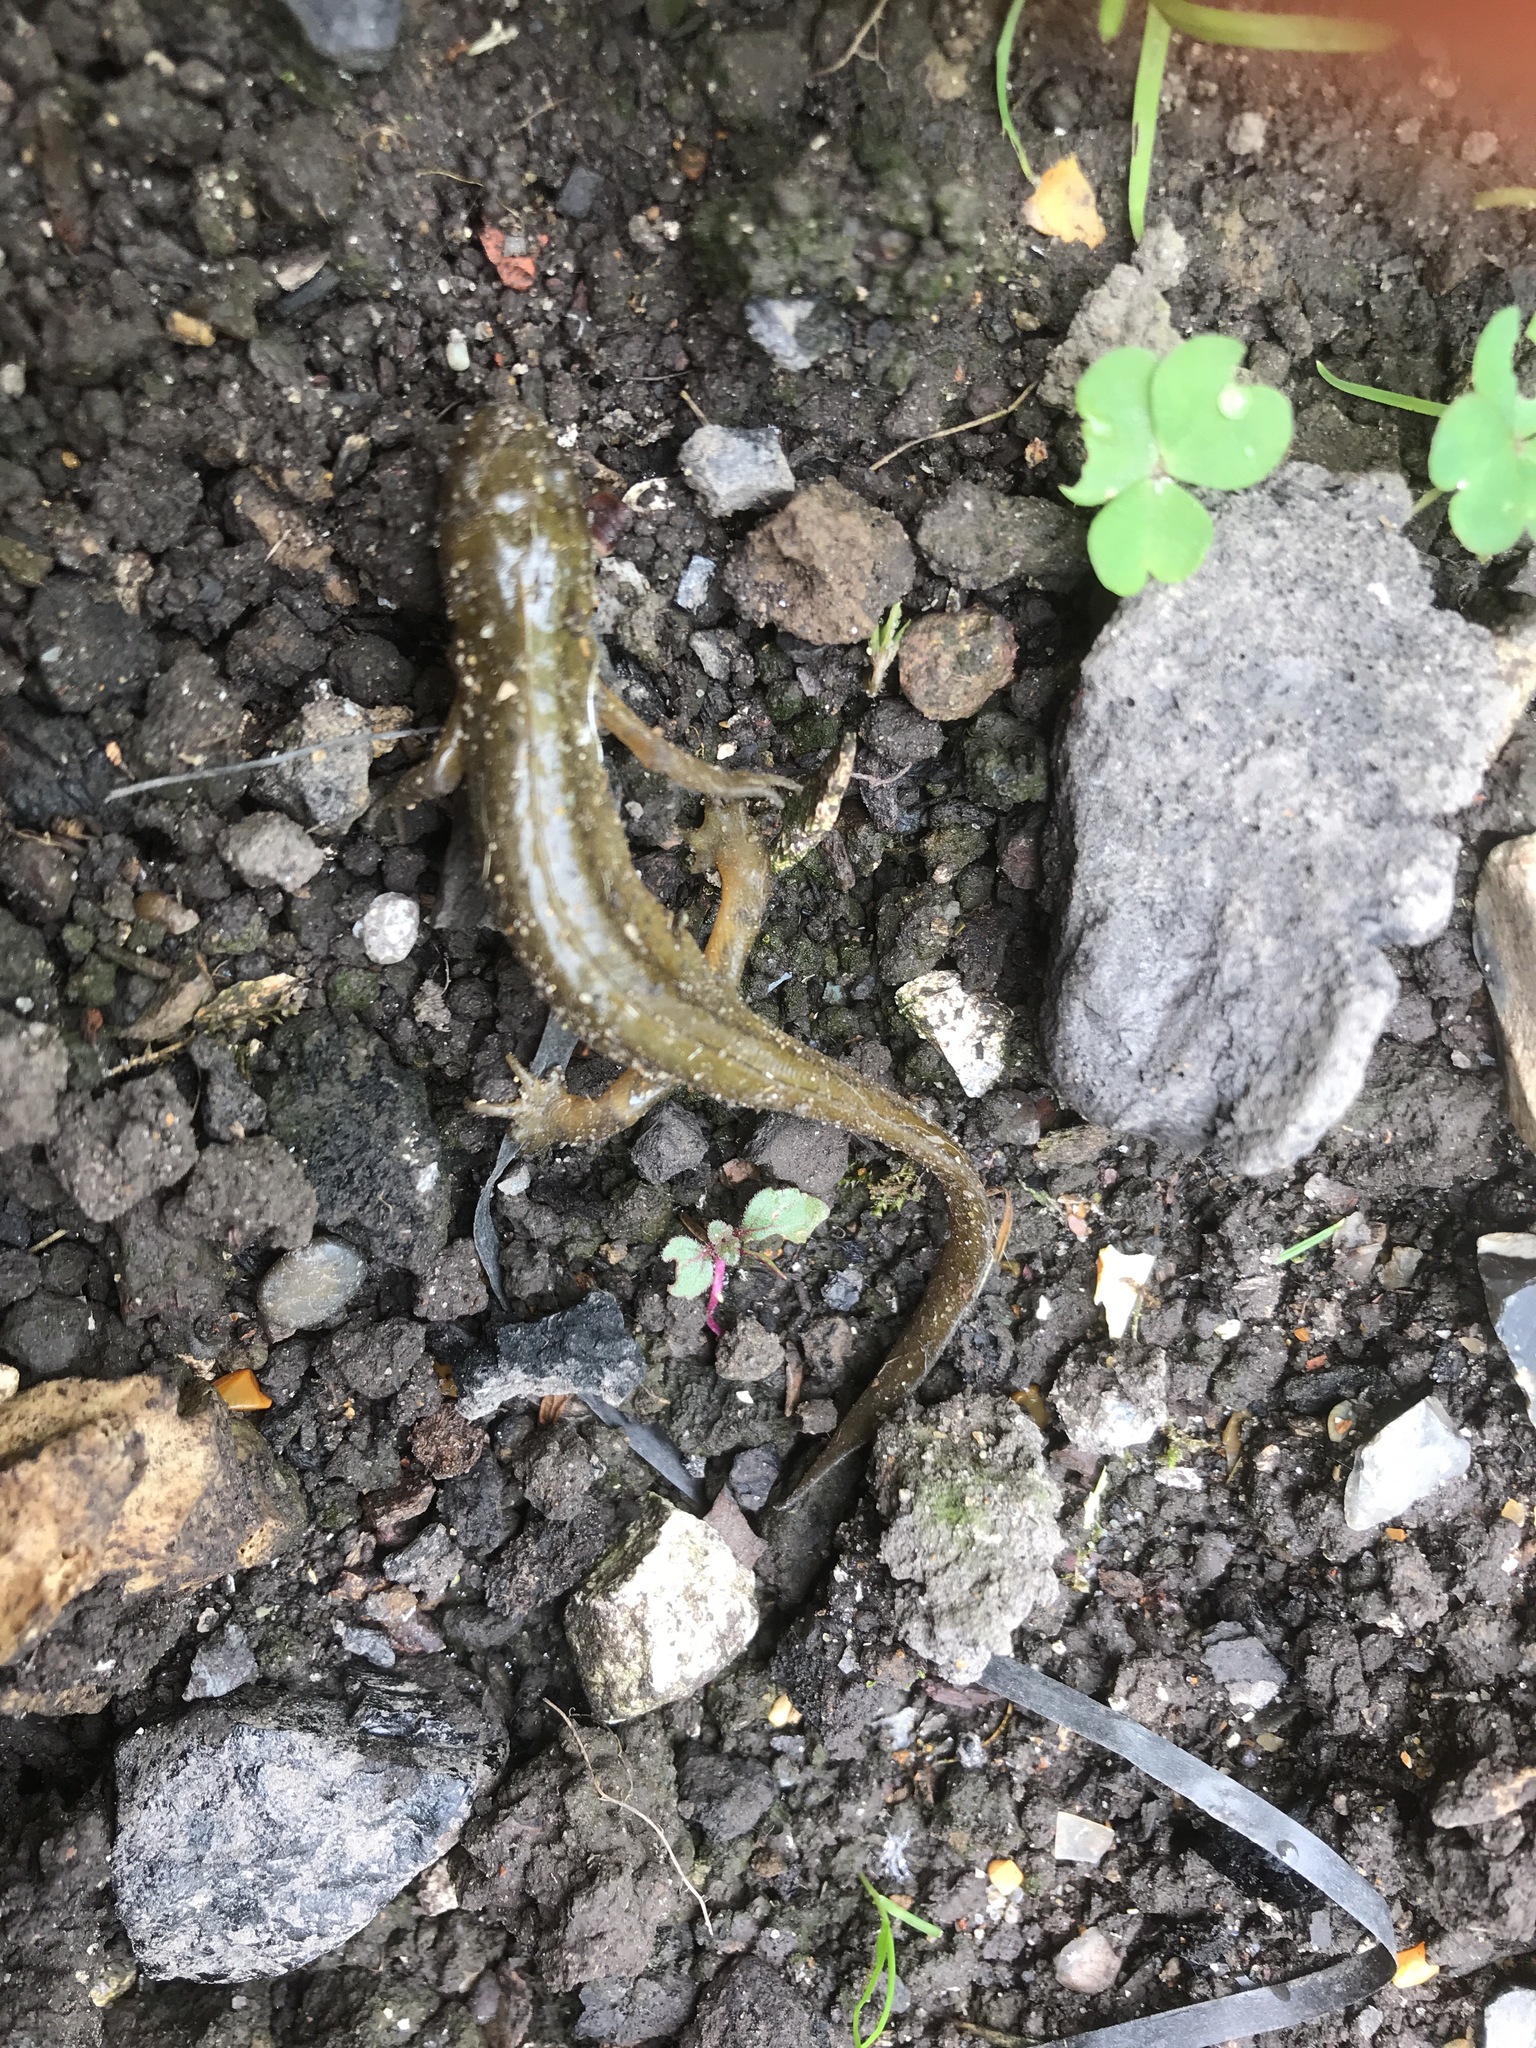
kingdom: Animalia
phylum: Chordata
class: Amphibia
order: Caudata
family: Salamandridae
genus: Lissotriton
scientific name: Lissotriton vulgaris
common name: Smooth newt
